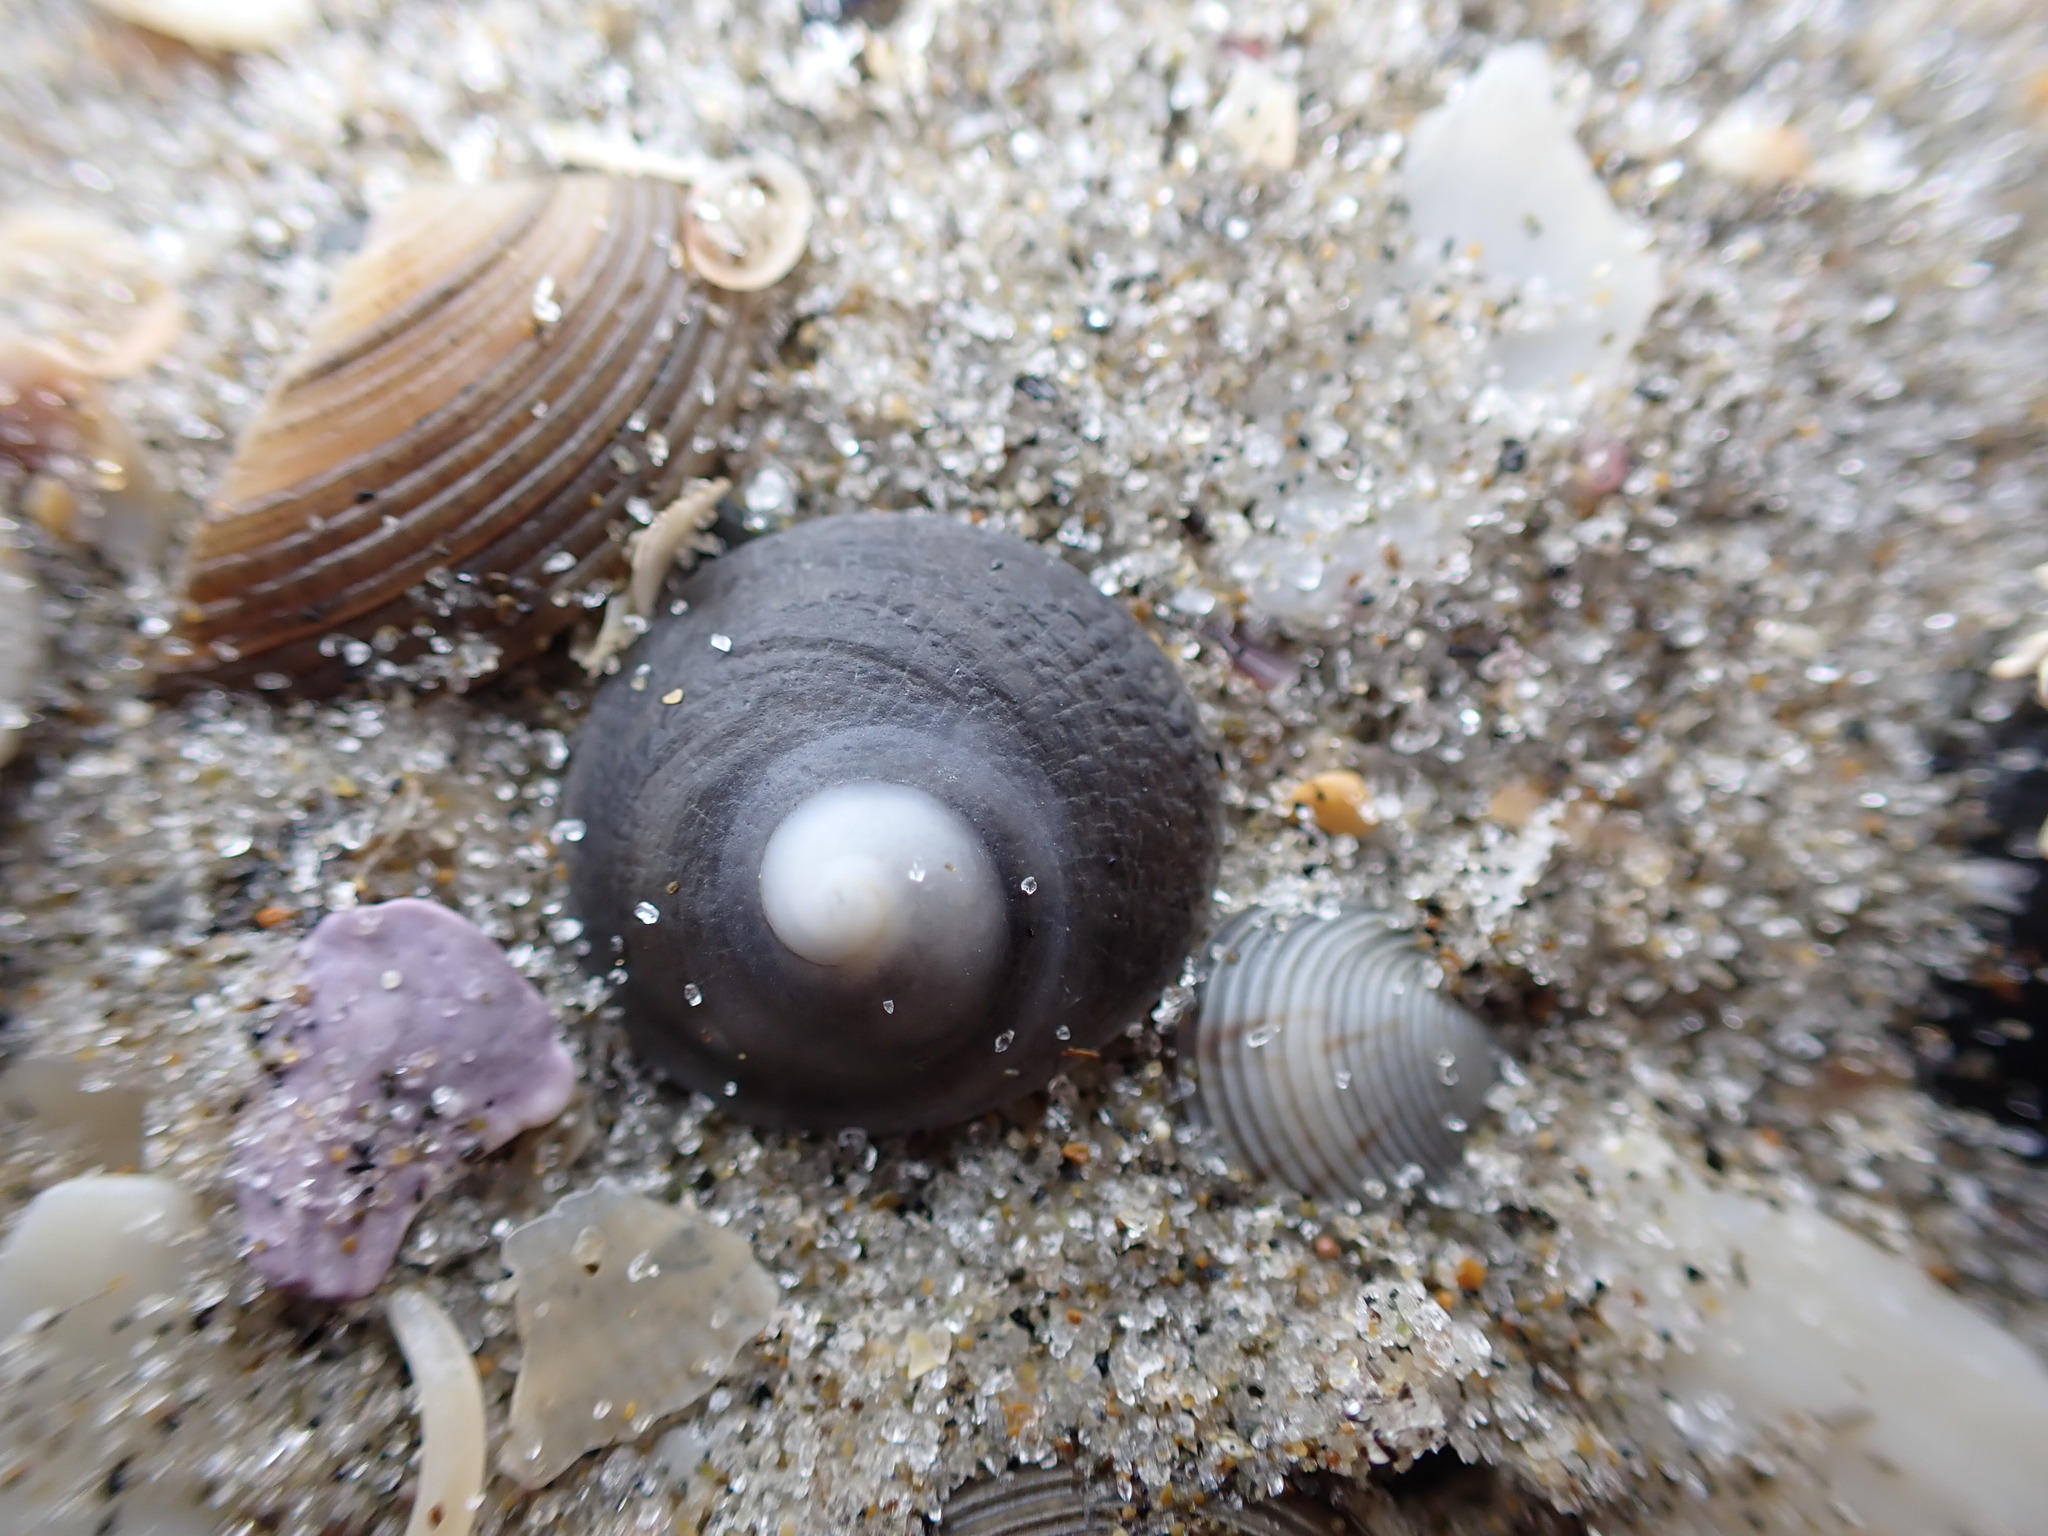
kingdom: Animalia
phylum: Mollusca
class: Gastropoda
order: Littorinimorpha
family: Calyptraeidae
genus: Sigapatella
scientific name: Sigapatella tenuis
